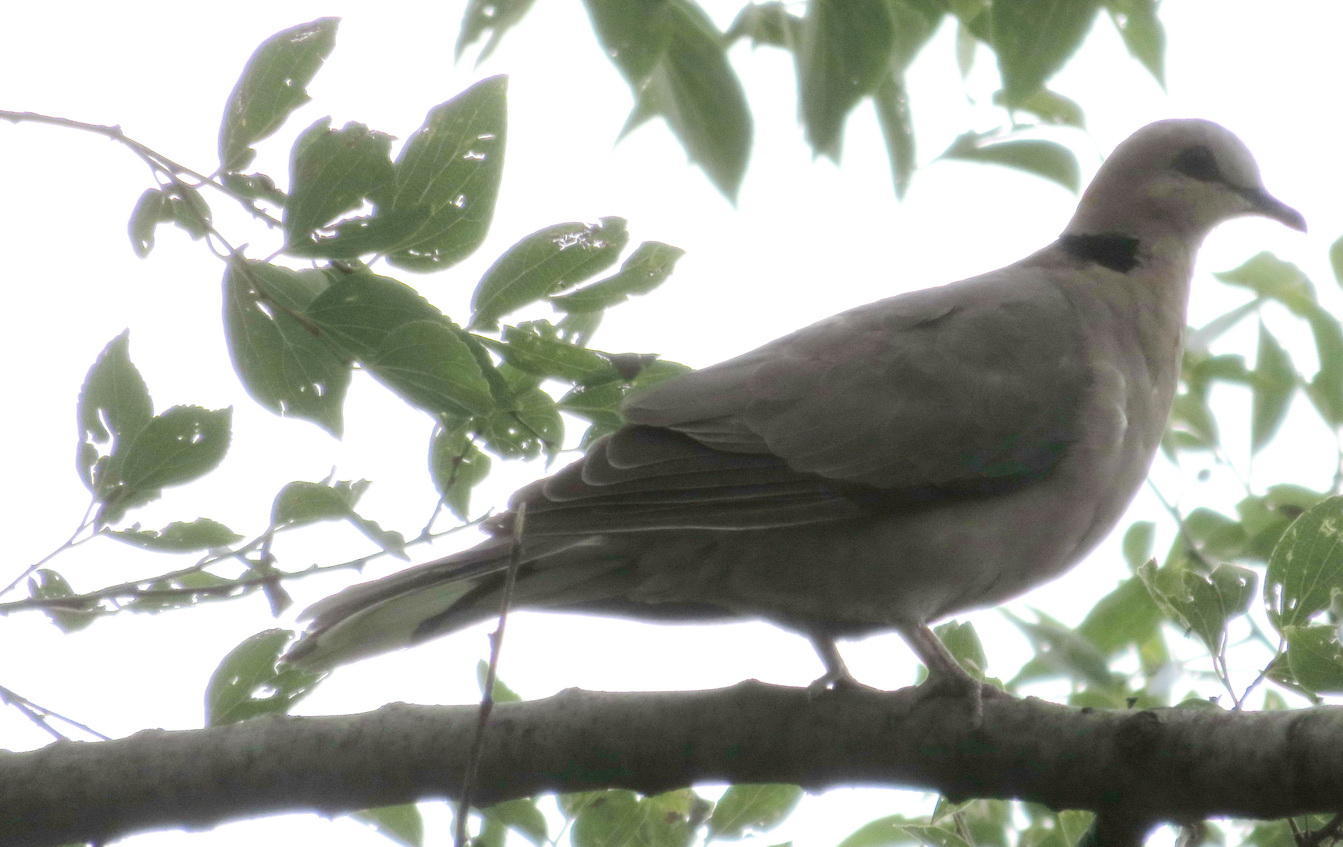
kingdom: Animalia
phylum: Chordata
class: Aves
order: Columbiformes
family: Columbidae
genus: Streptopelia
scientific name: Streptopelia semitorquata
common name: Red-eyed dove
